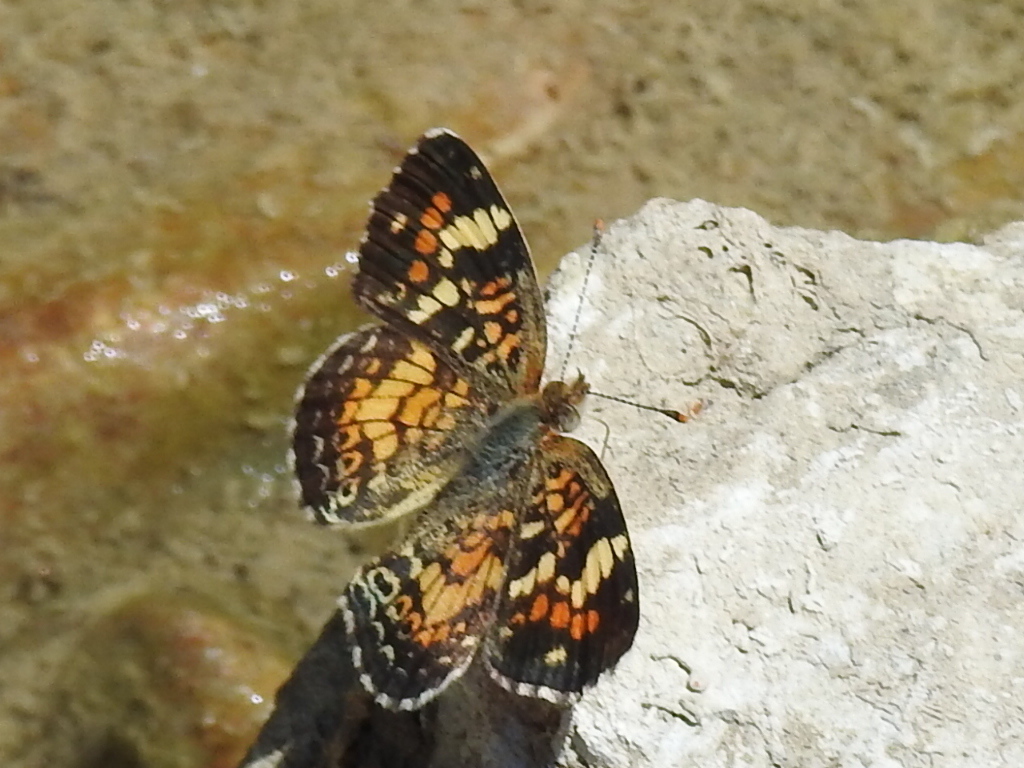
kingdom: Animalia
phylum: Arthropoda
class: Insecta
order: Lepidoptera
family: Nymphalidae
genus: Phyciodes
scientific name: Phyciodes phaon
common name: Phaon crescent
